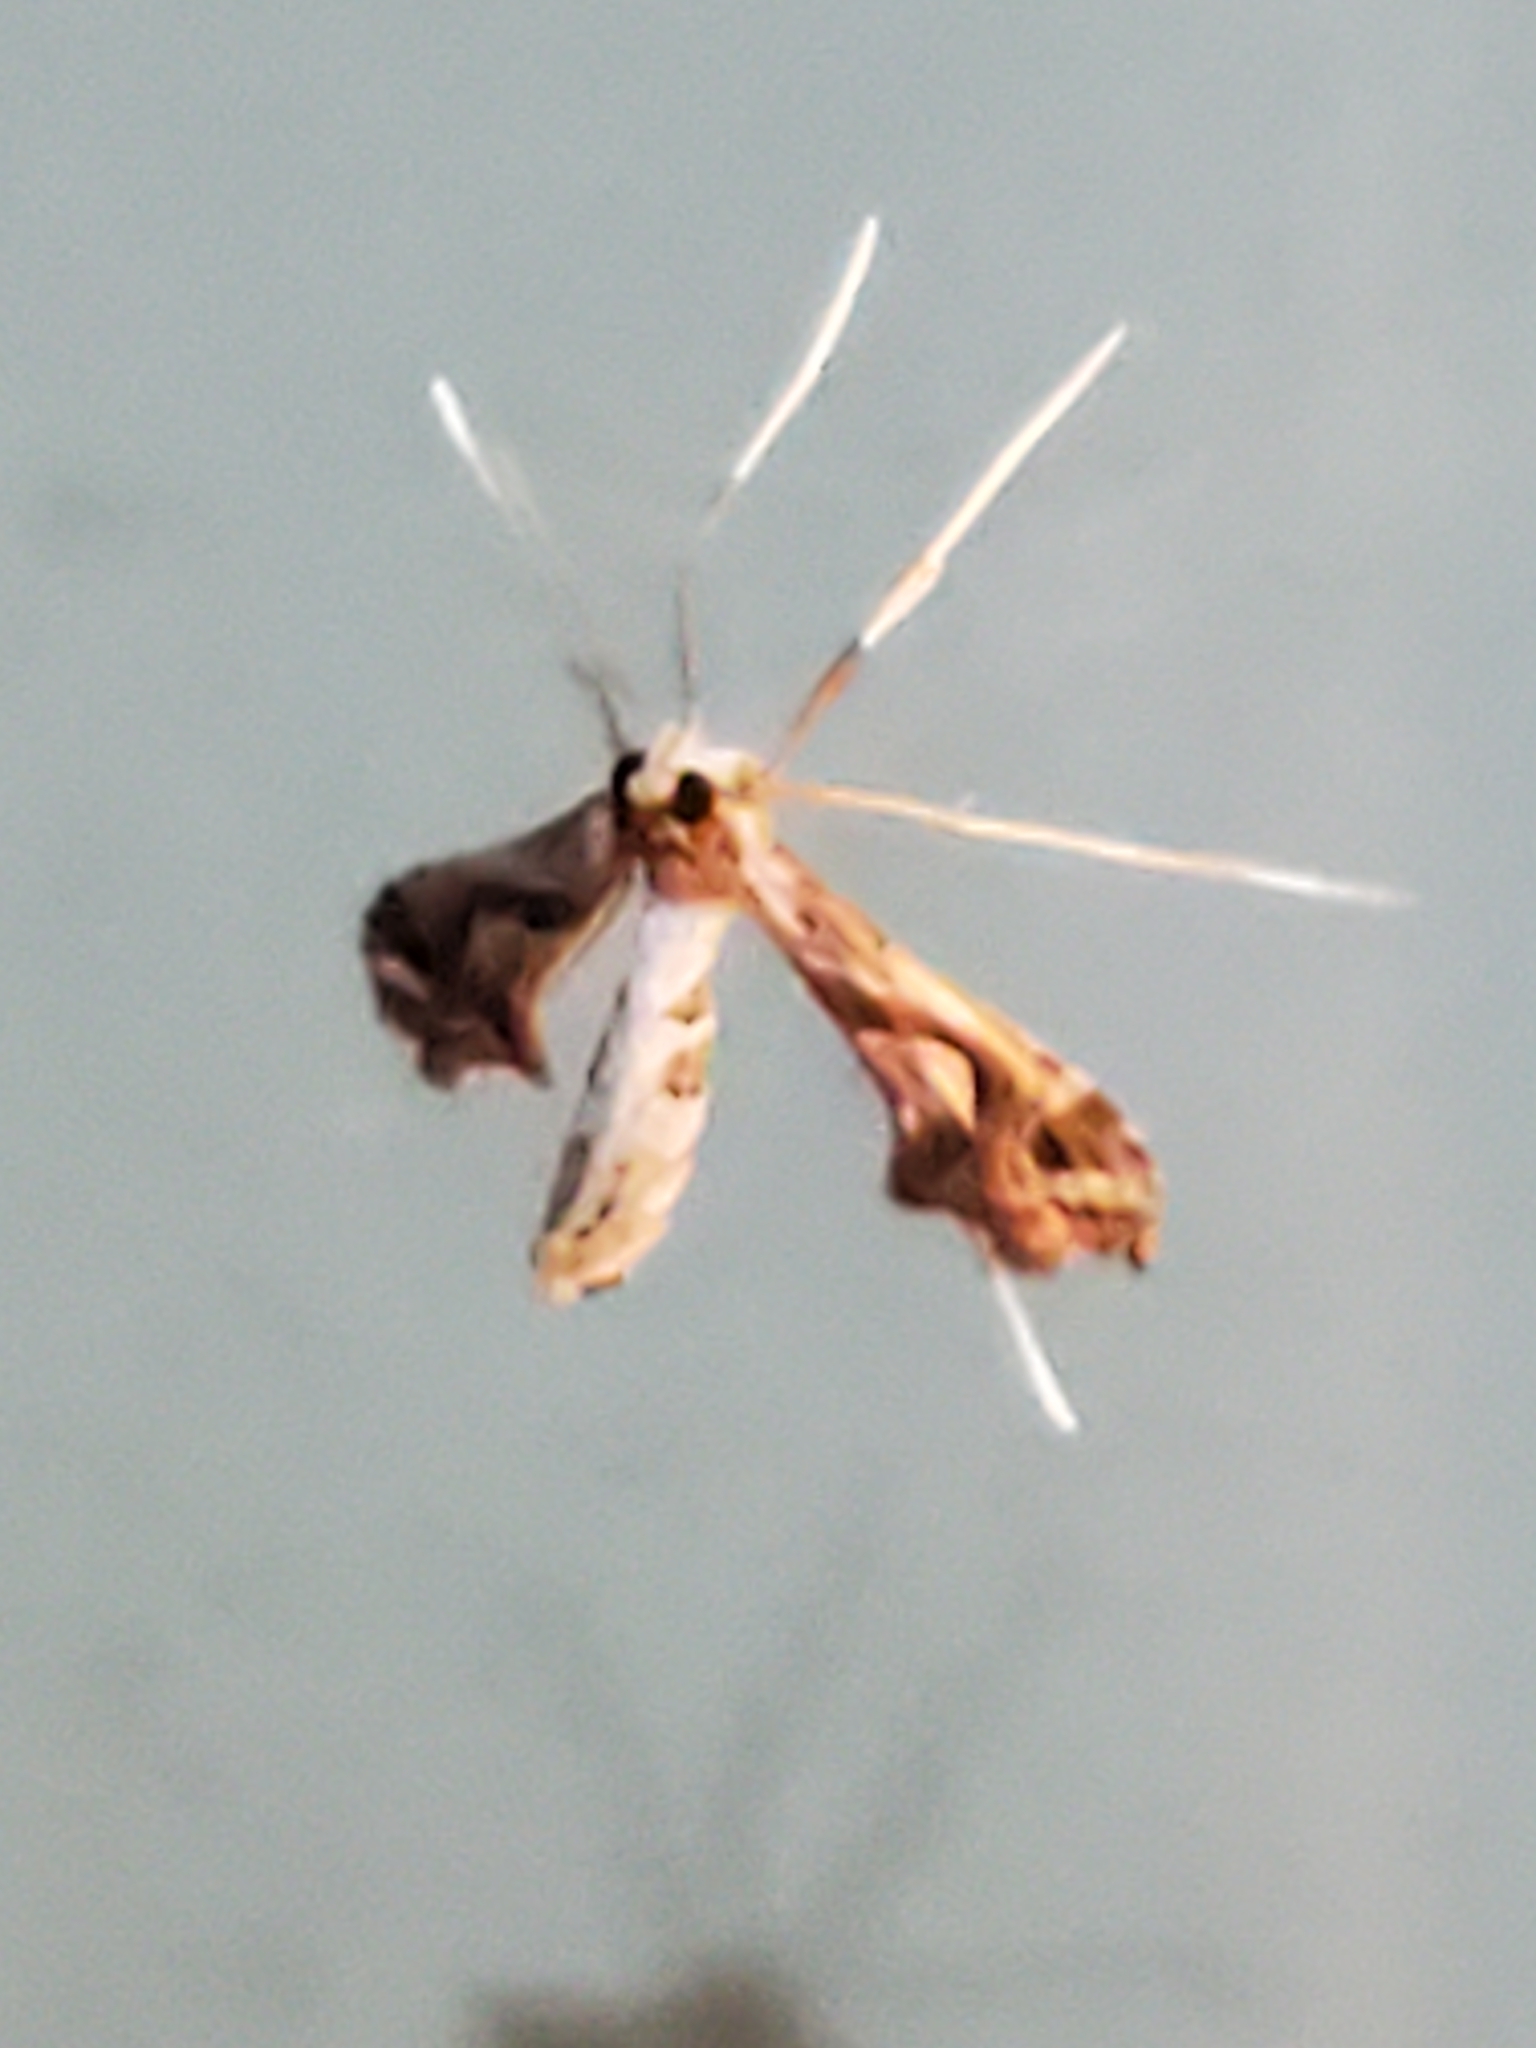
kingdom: Animalia
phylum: Arthropoda
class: Insecta
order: Lepidoptera
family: Crambidae
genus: Lineodes
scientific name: Lineodes integra
